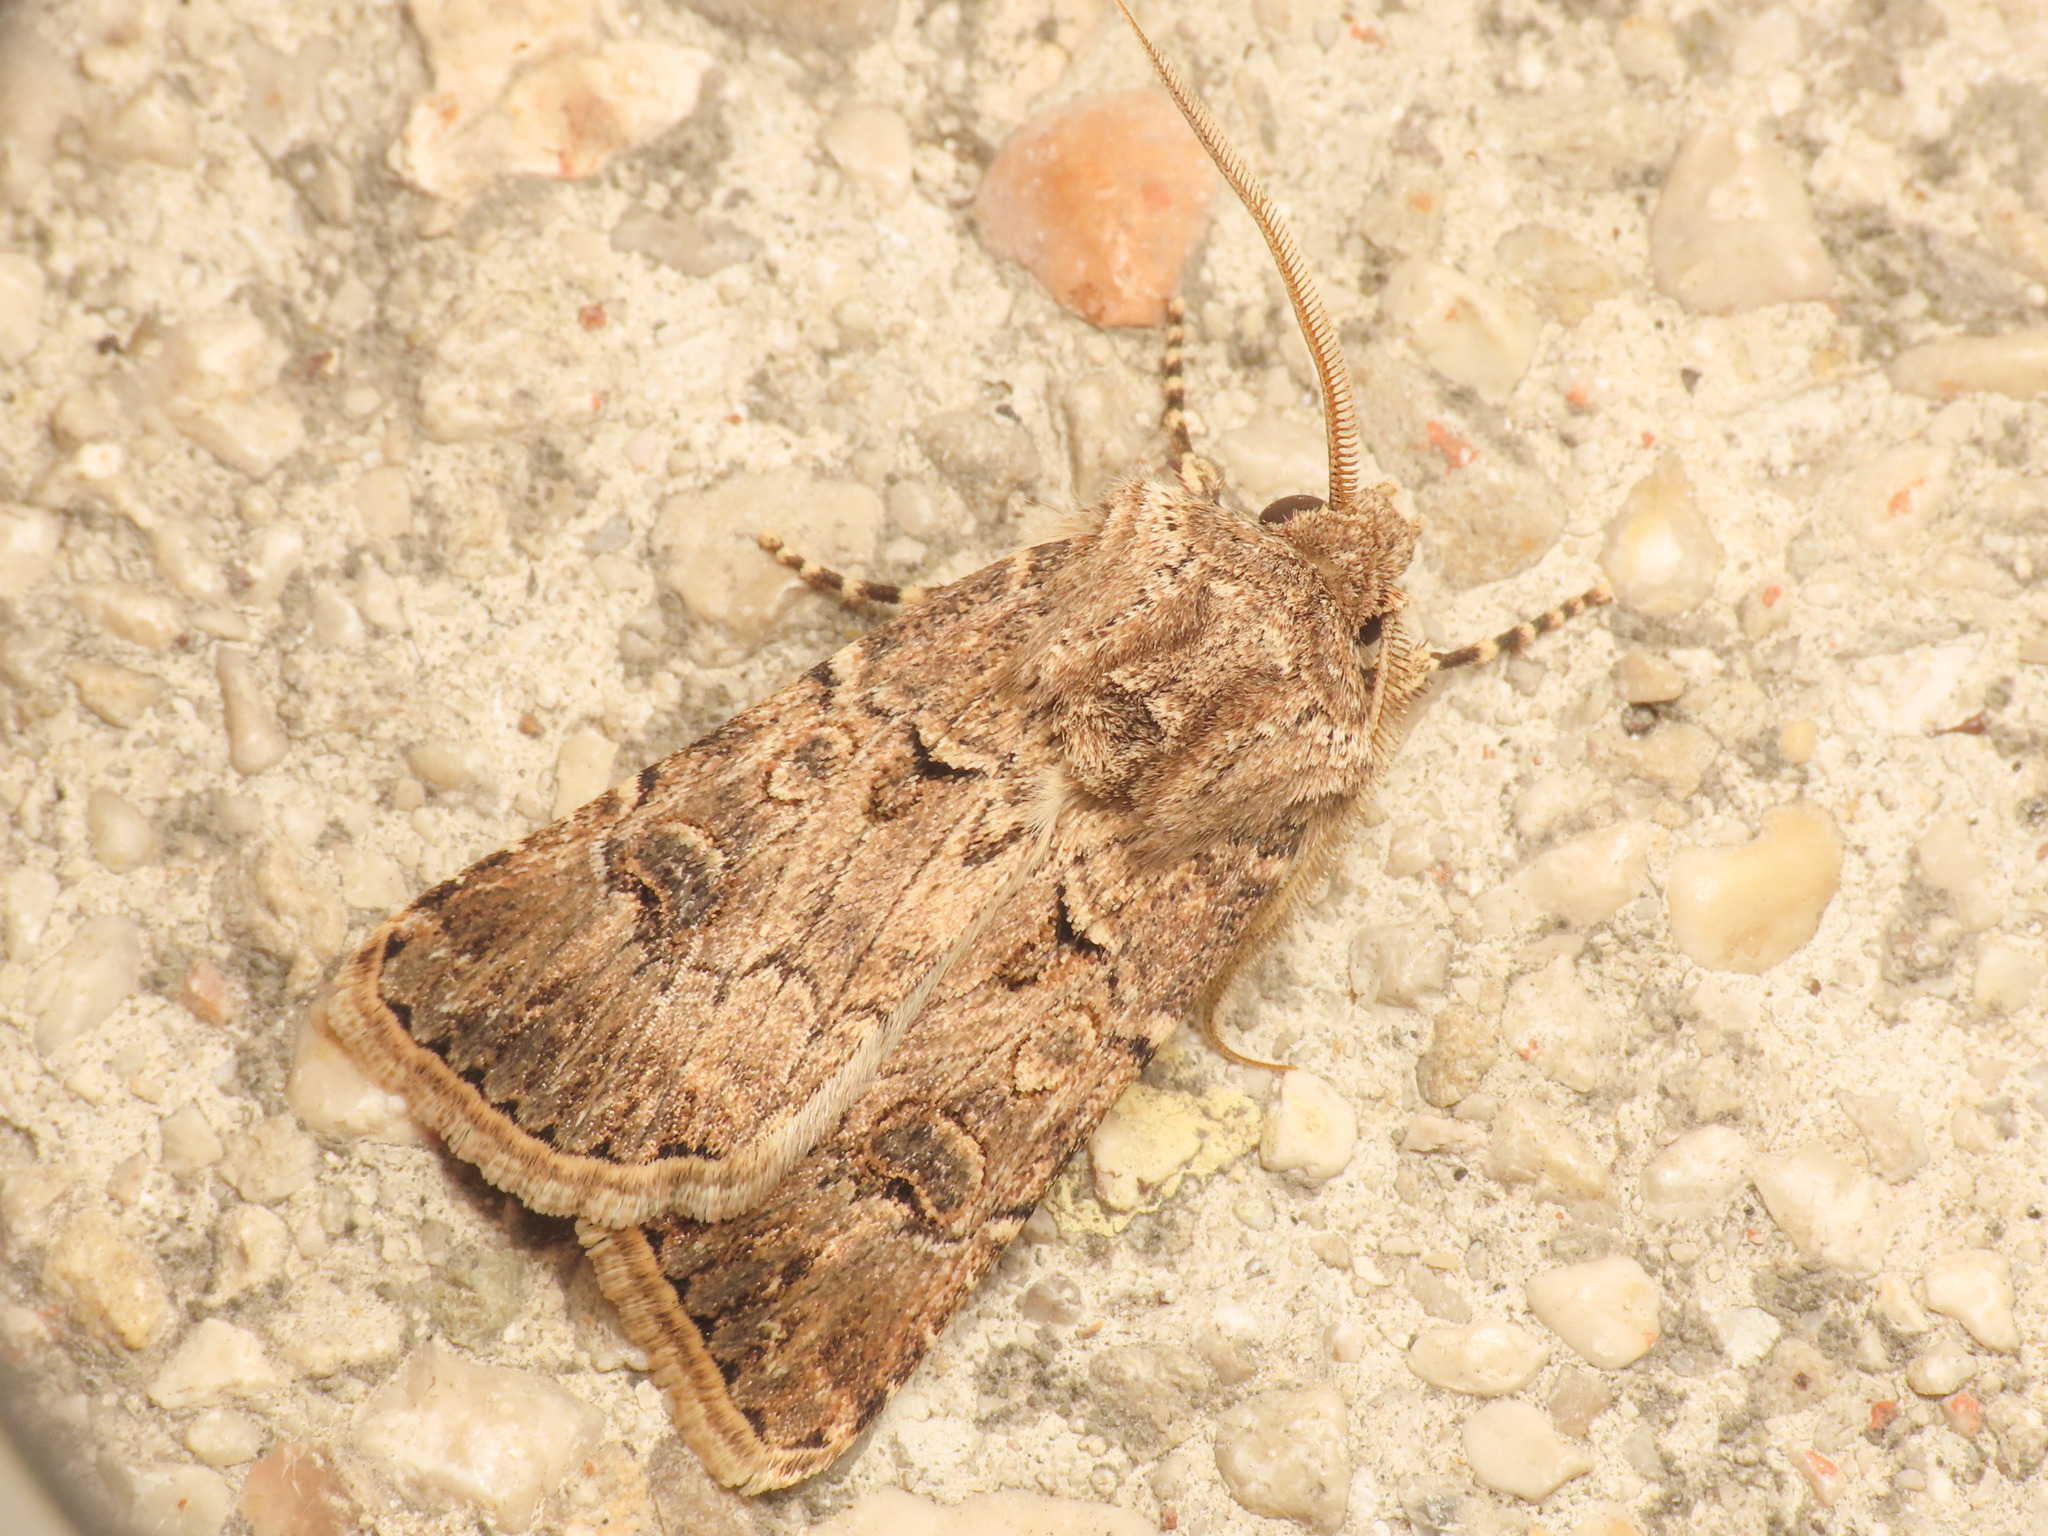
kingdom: Animalia
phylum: Arthropoda
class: Insecta
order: Lepidoptera
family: Noctuidae
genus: Agrotis
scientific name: Agrotis bigramma
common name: Great dart
